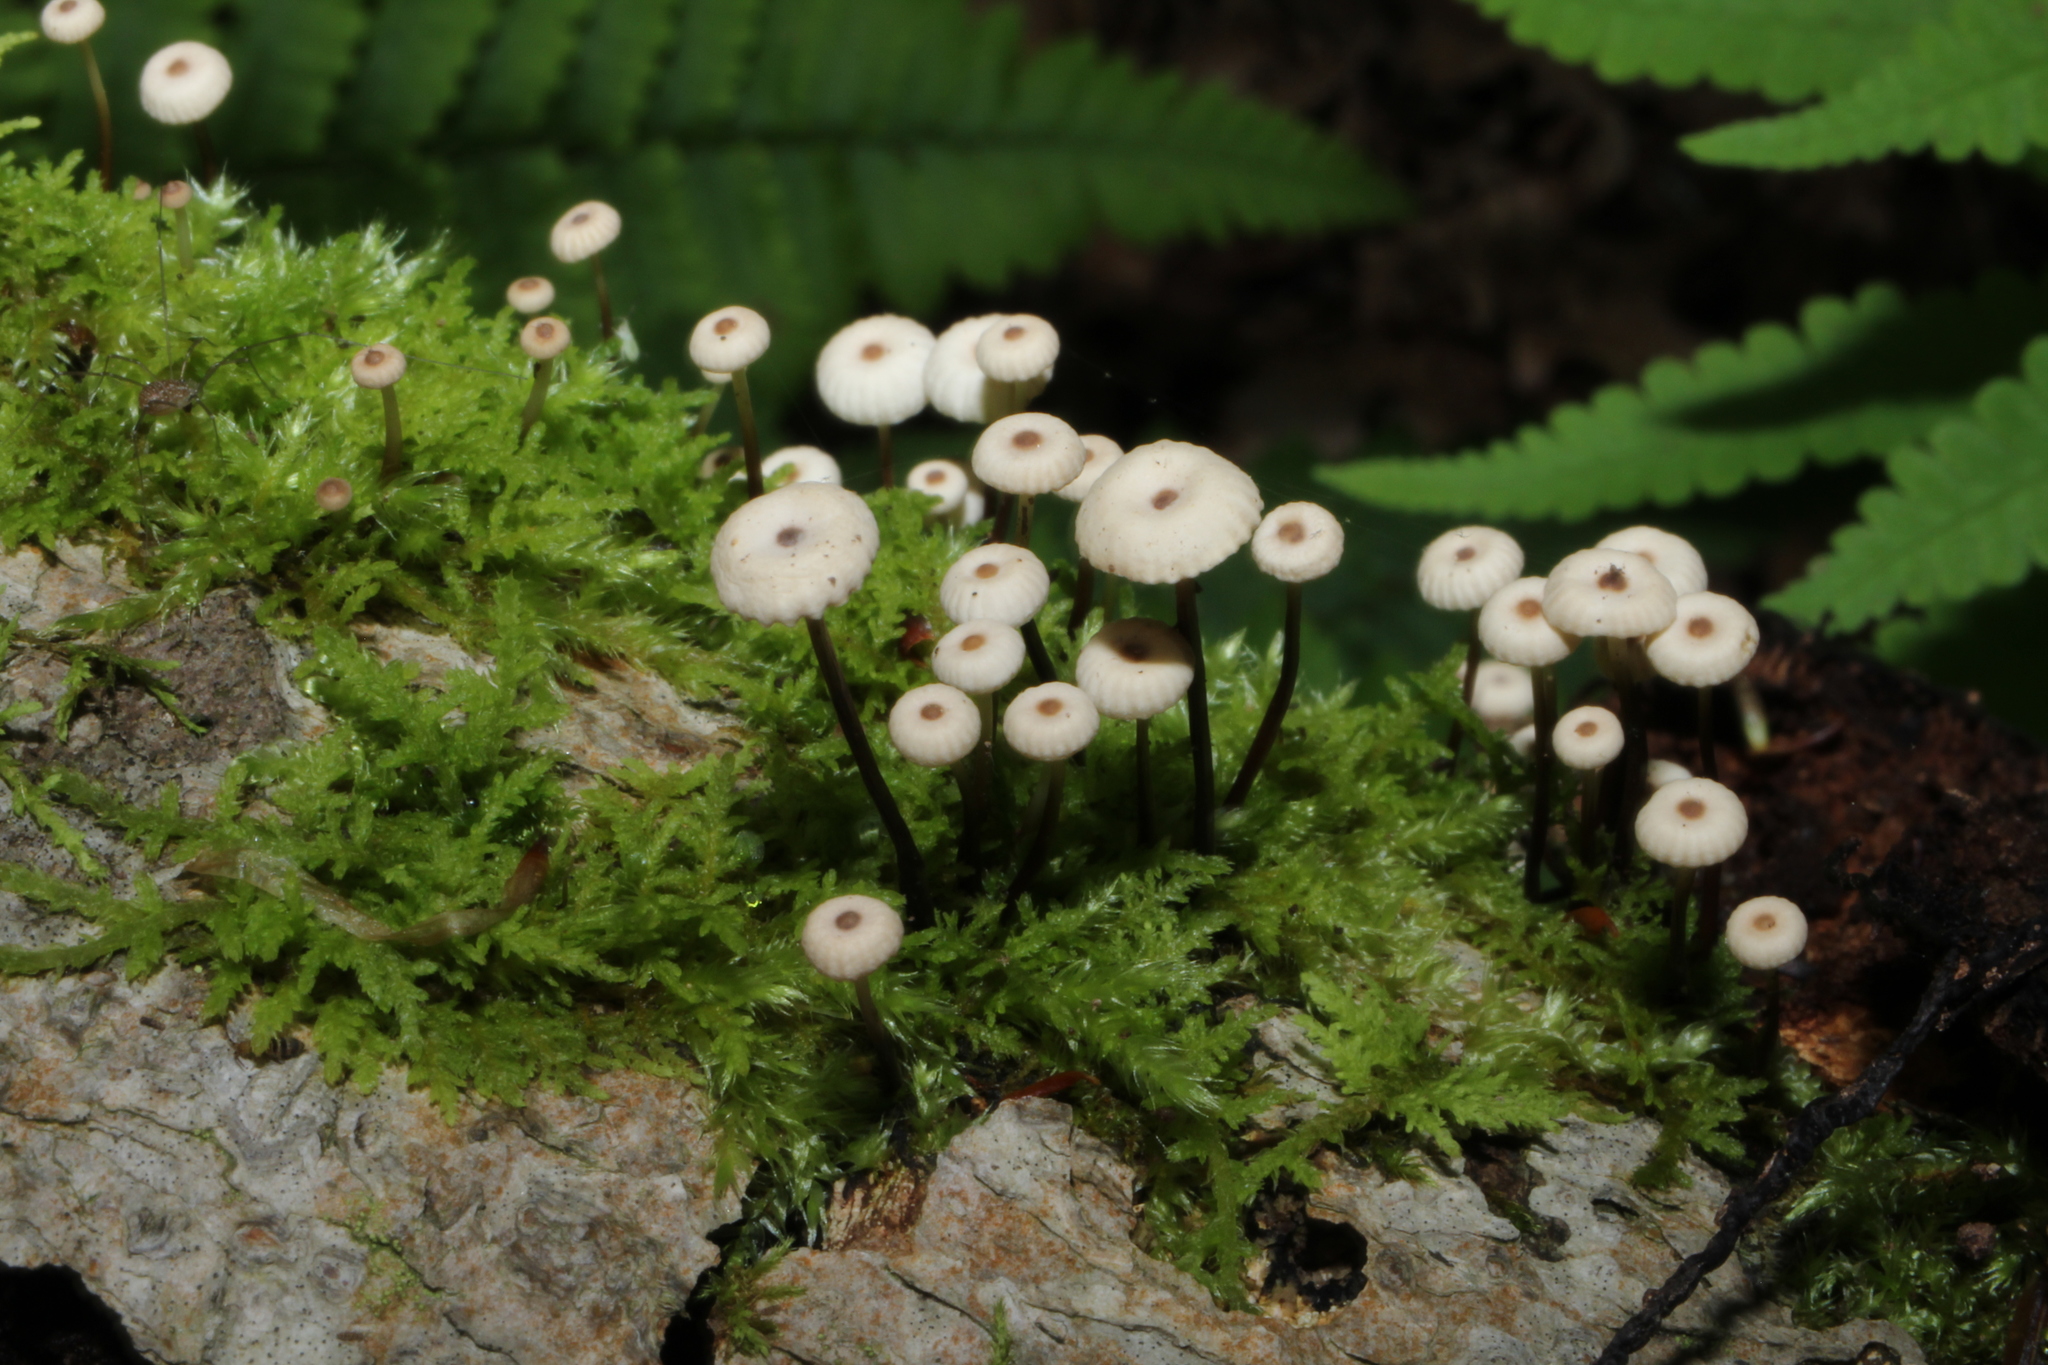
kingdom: Fungi
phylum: Basidiomycota
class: Agaricomycetes
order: Agaricales
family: Marasmiaceae
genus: Marasmius
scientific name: Marasmius rotula
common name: Collared parachute
